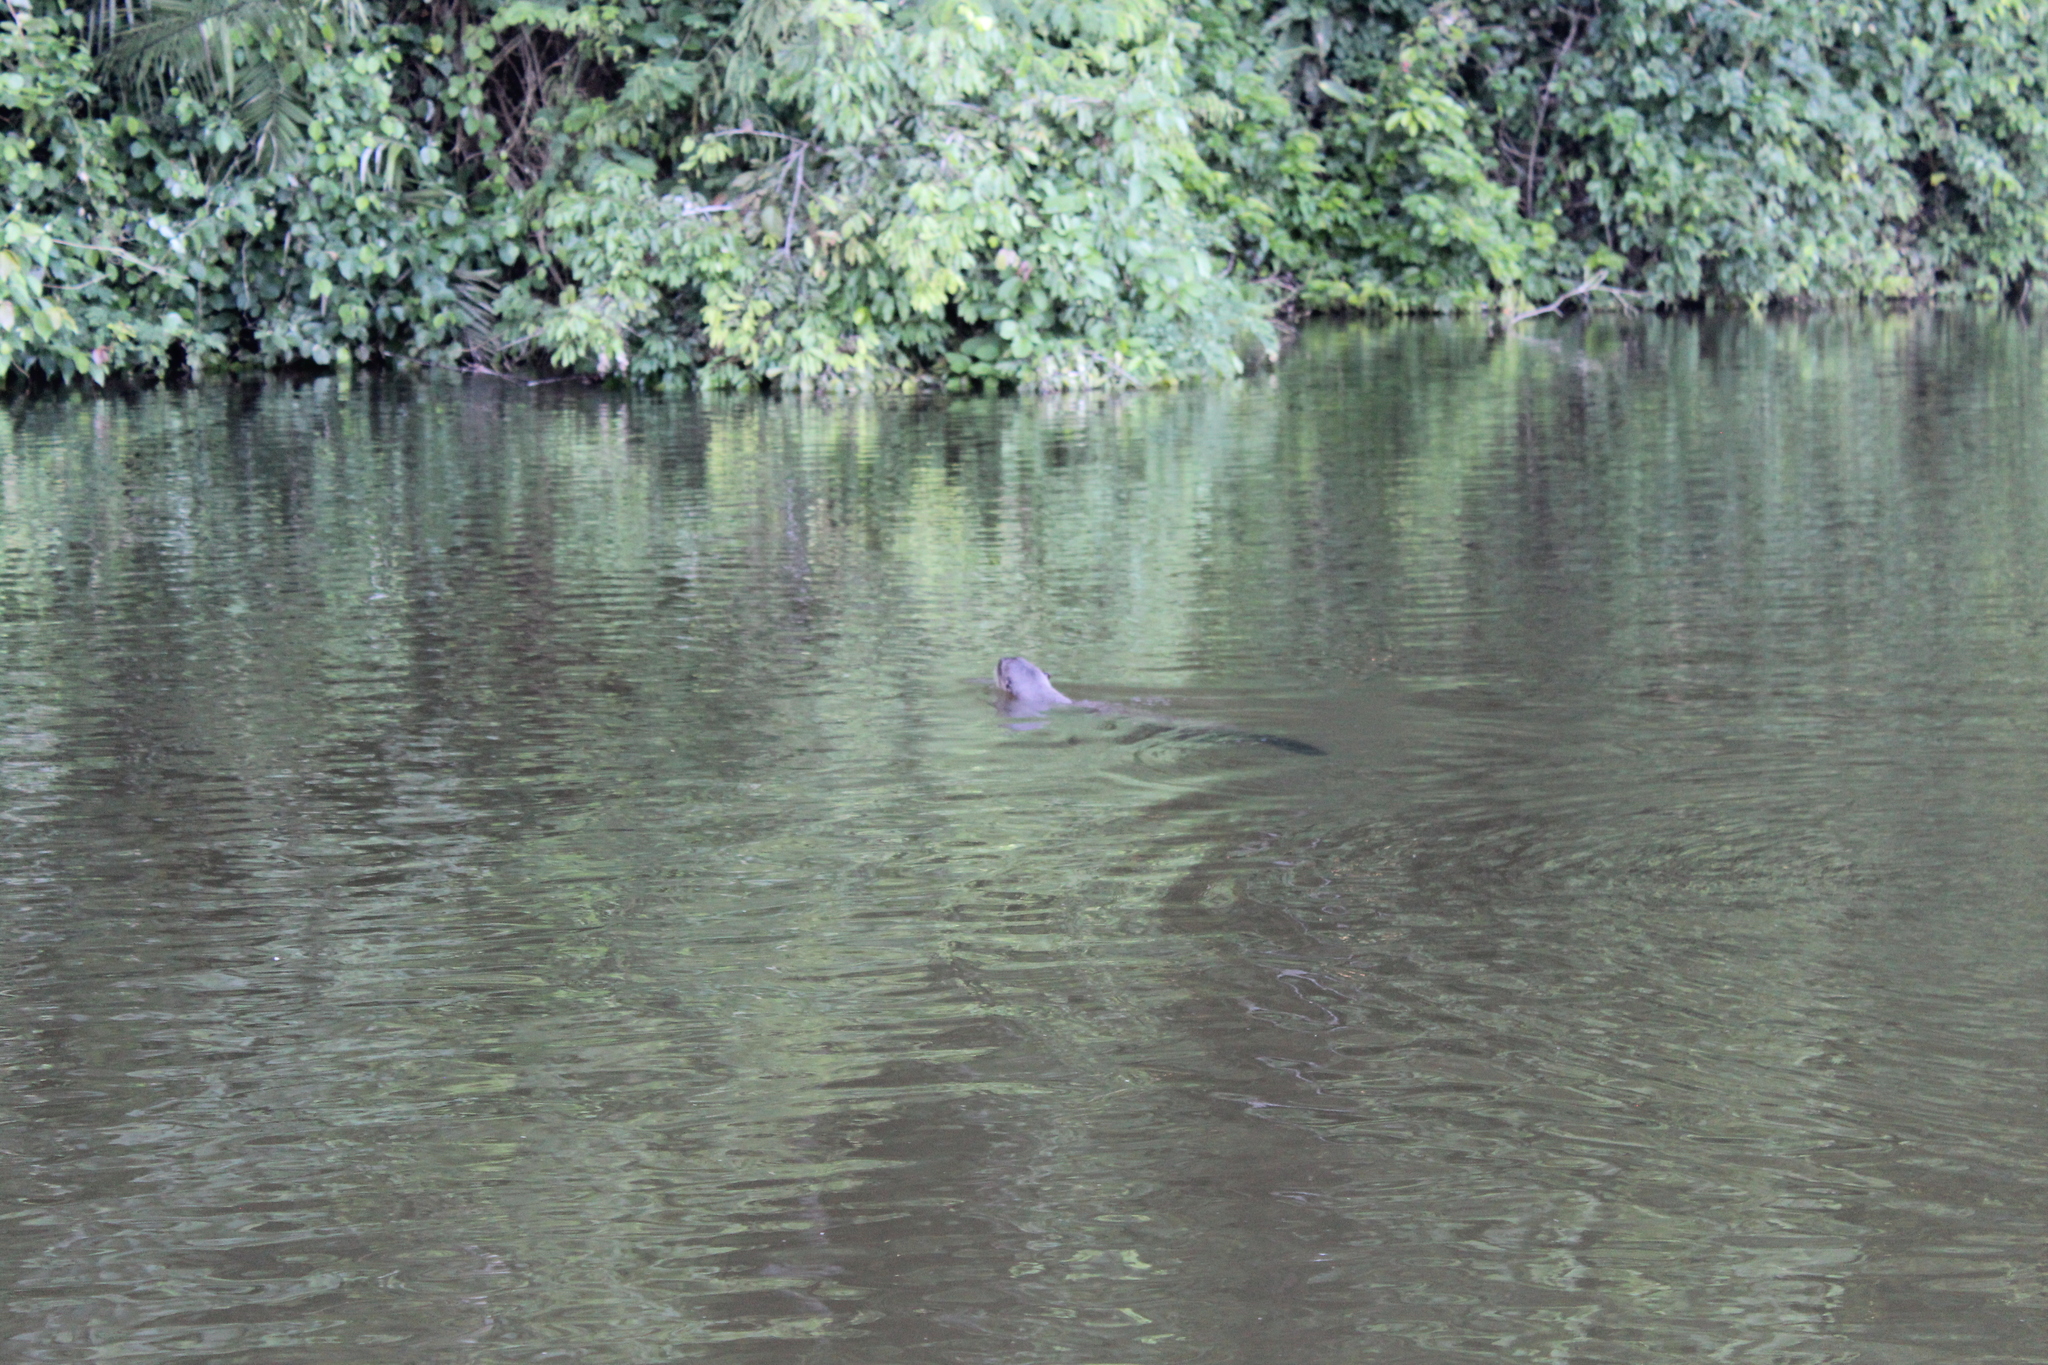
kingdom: Animalia
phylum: Chordata
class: Mammalia
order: Carnivora
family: Mustelidae
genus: Pteronura
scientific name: Pteronura brasiliensis
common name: Giant otter
